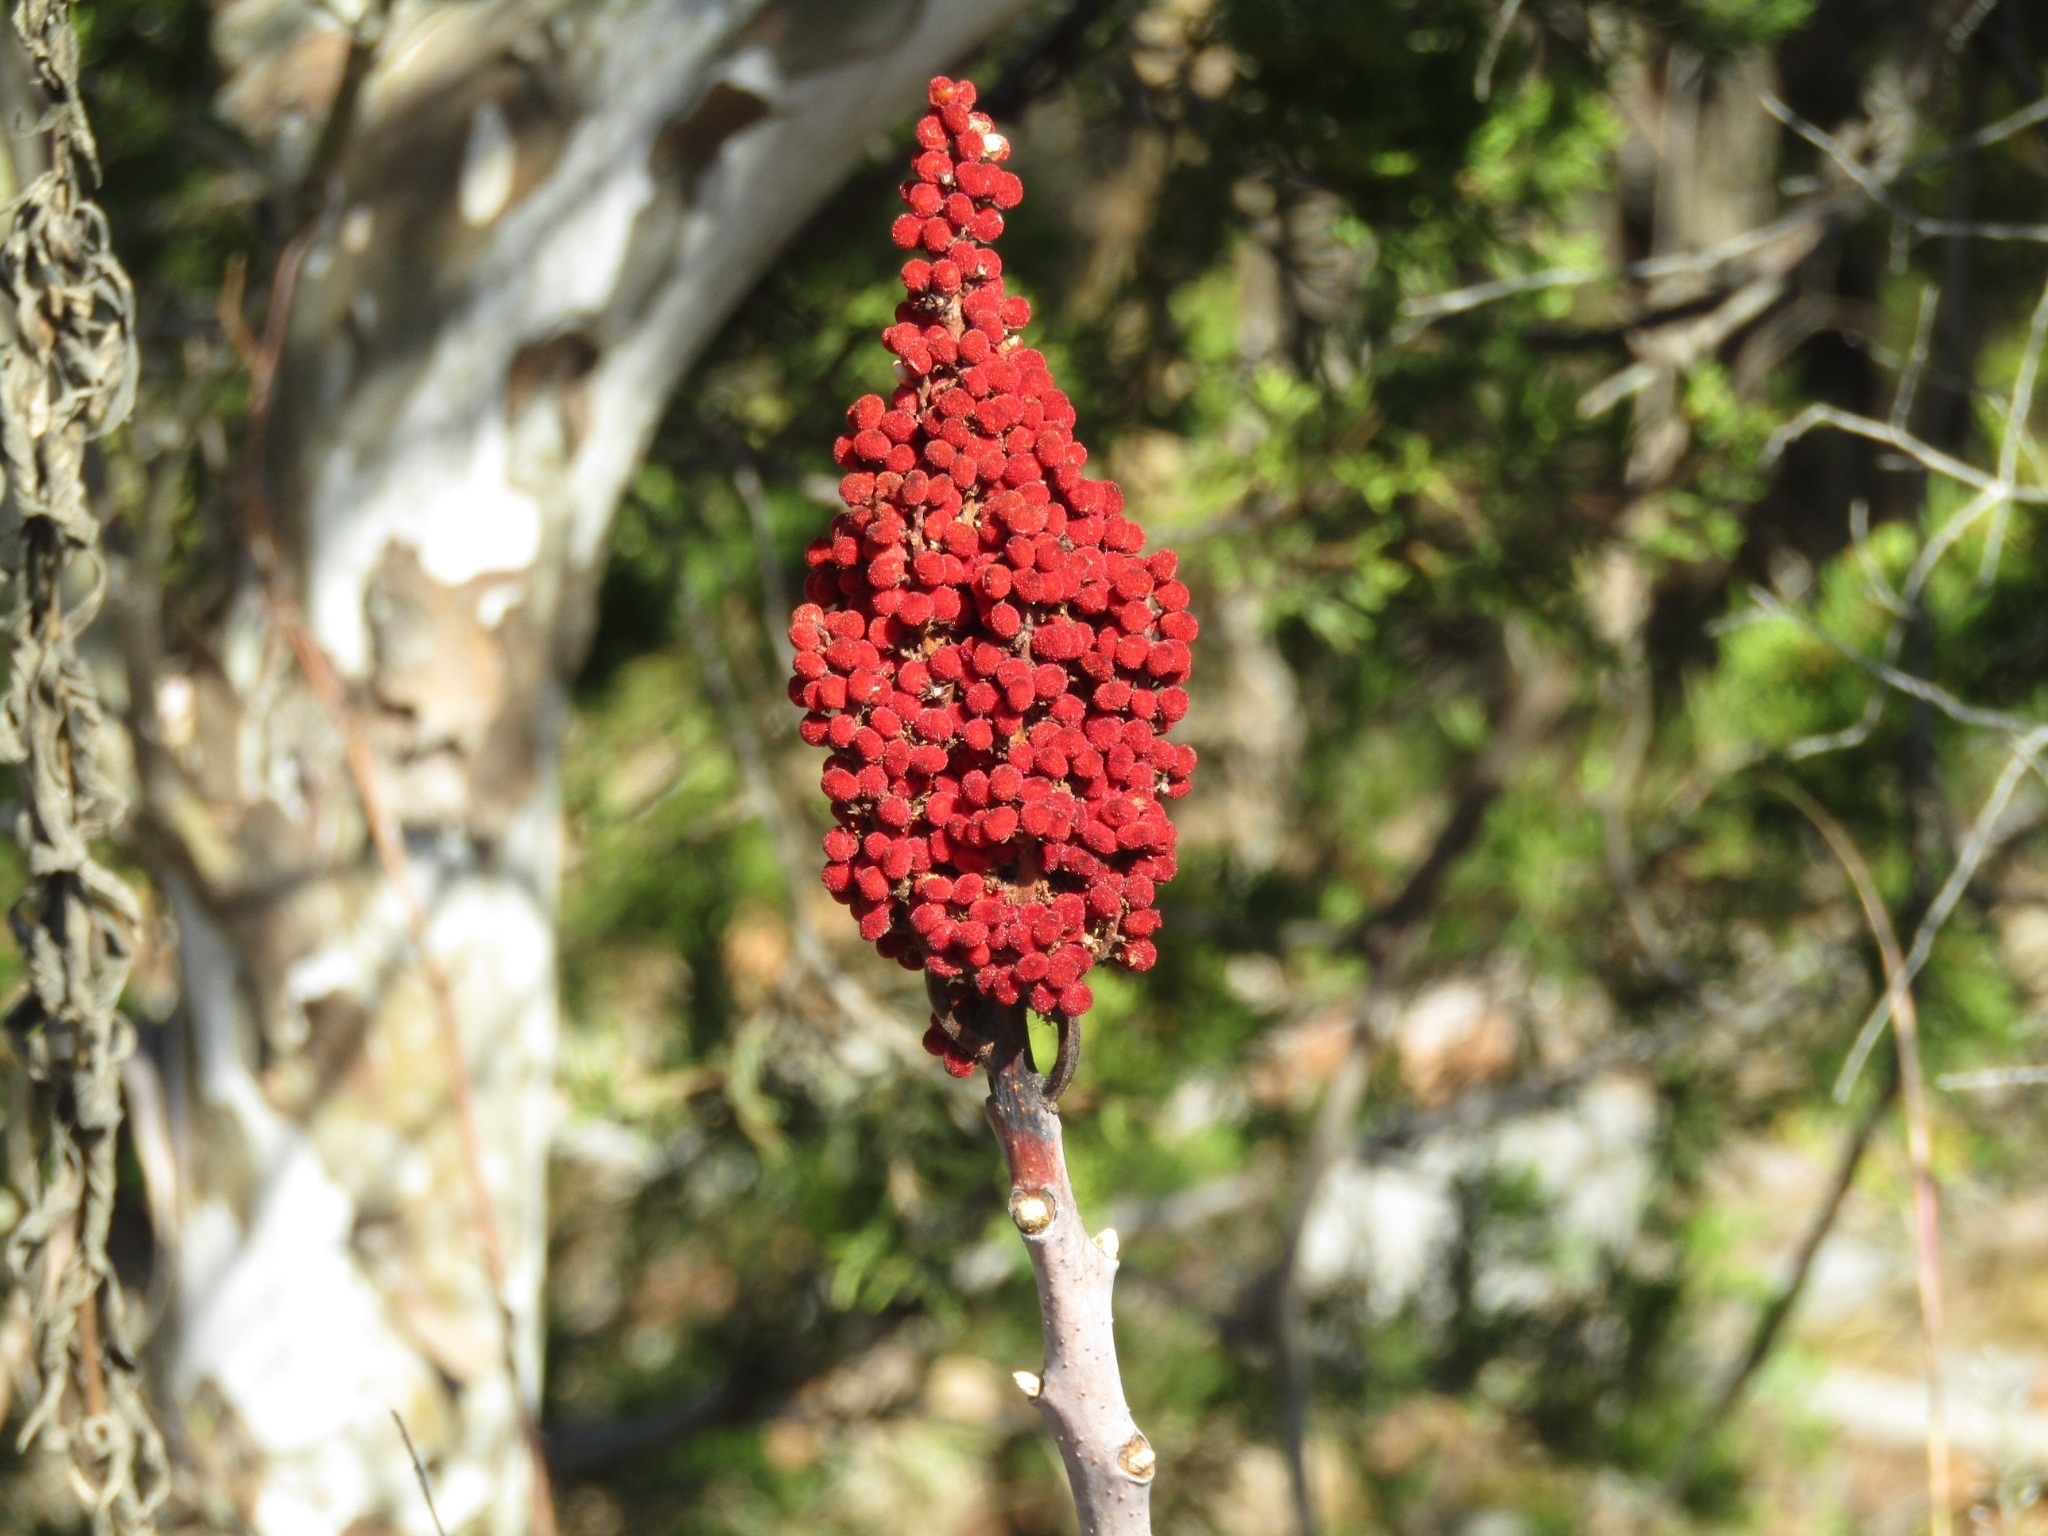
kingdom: Plantae
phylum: Tracheophyta
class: Magnoliopsida
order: Sapindales
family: Anacardiaceae
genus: Rhus
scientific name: Rhus glabra
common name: Scarlet sumac
